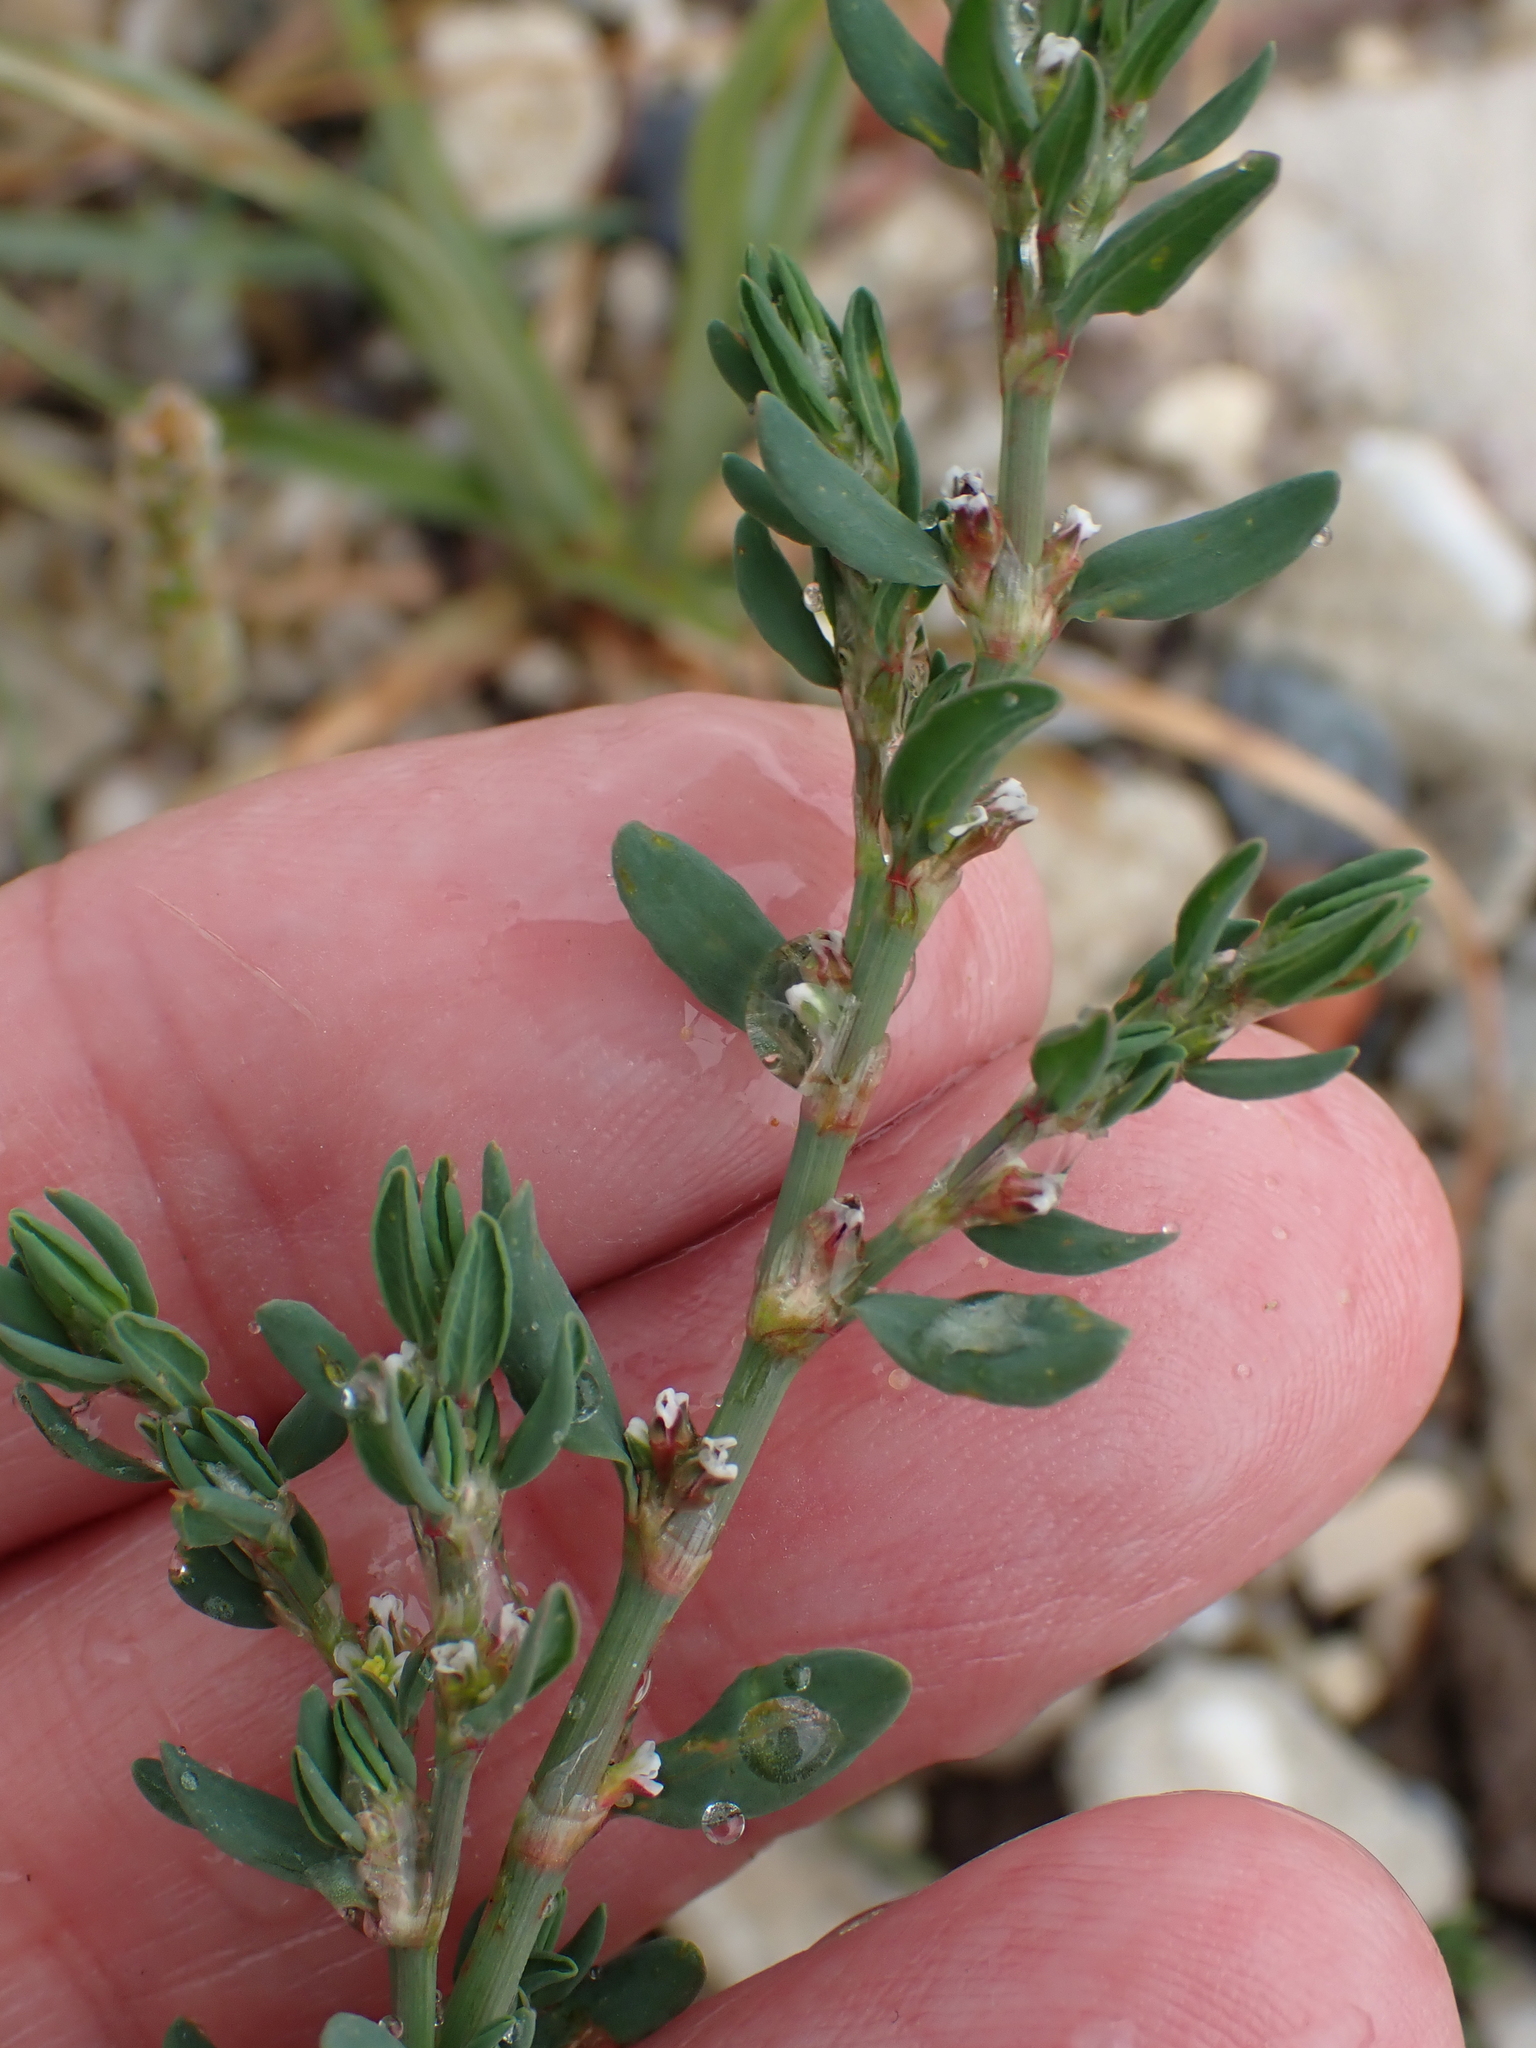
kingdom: Plantae
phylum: Tracheophyta
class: Magnoliopsida
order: Caryophyllales
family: Polygonaceae
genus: Polygonum
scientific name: Polygonum raii
